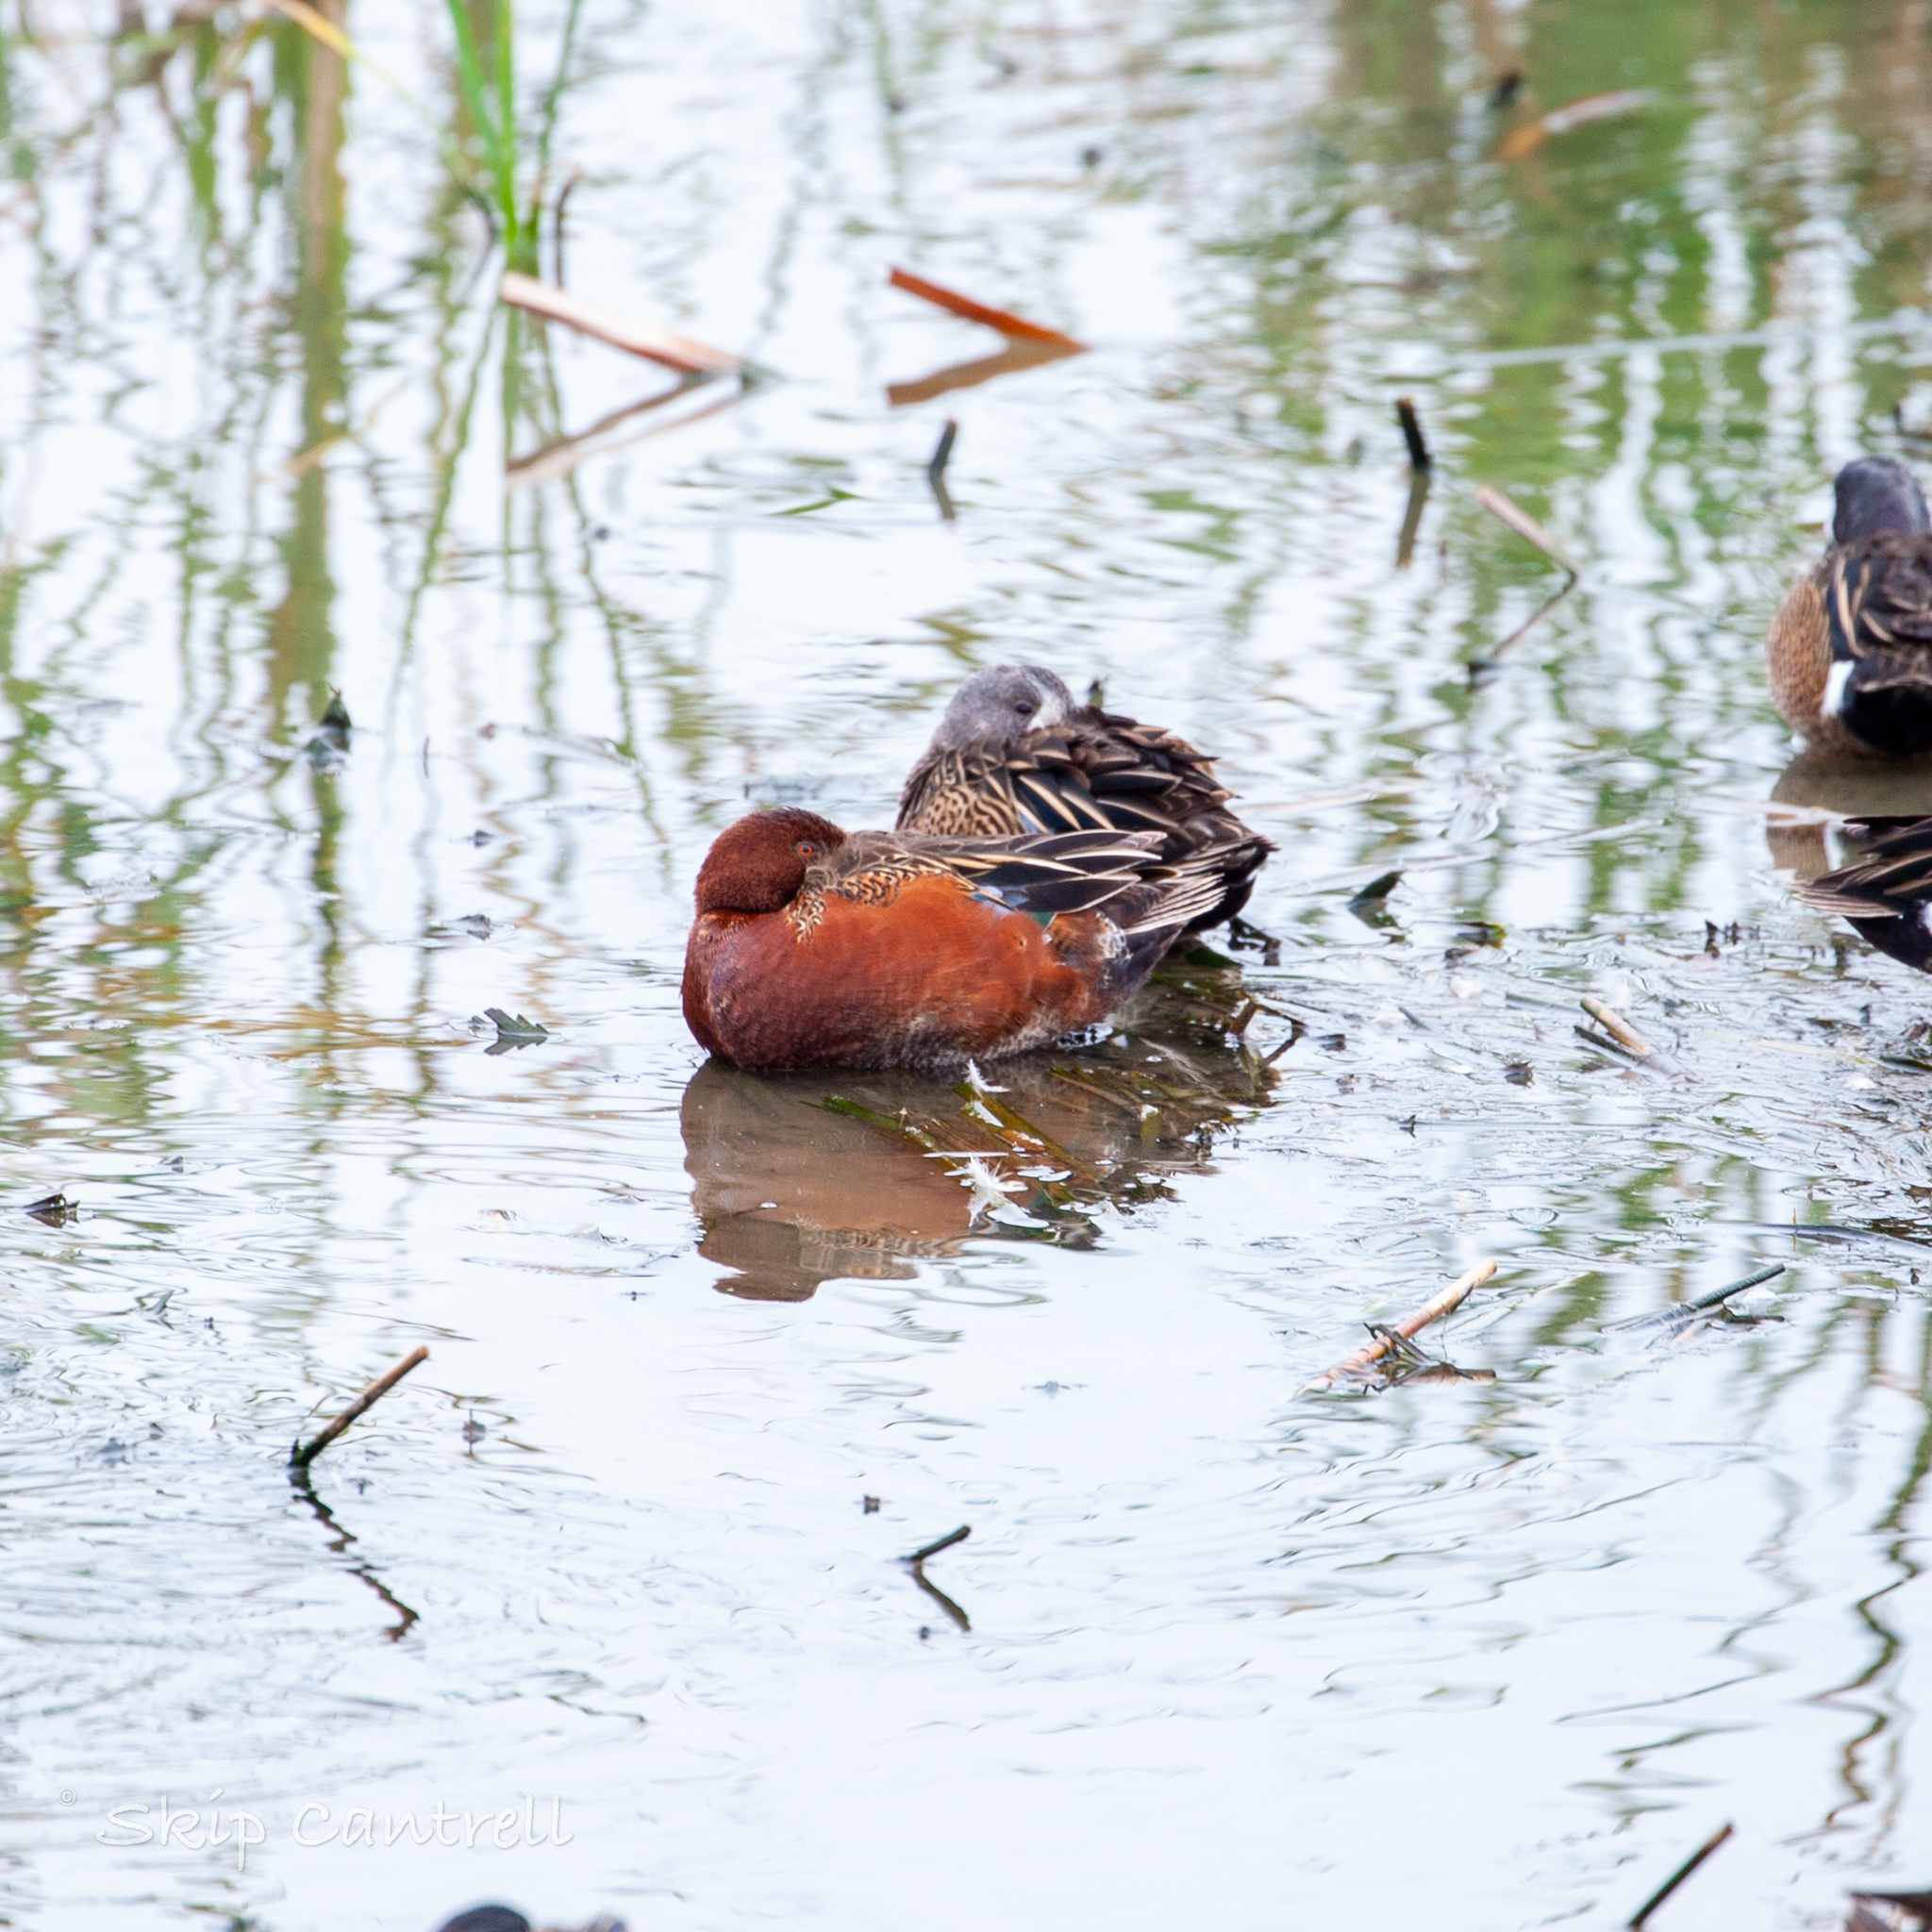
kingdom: Animalia
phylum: Chordata
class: Aves
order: Anseriformes
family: Anatidae
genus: Spatula
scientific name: Spatula cyanoptera
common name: Cinnamon teal
